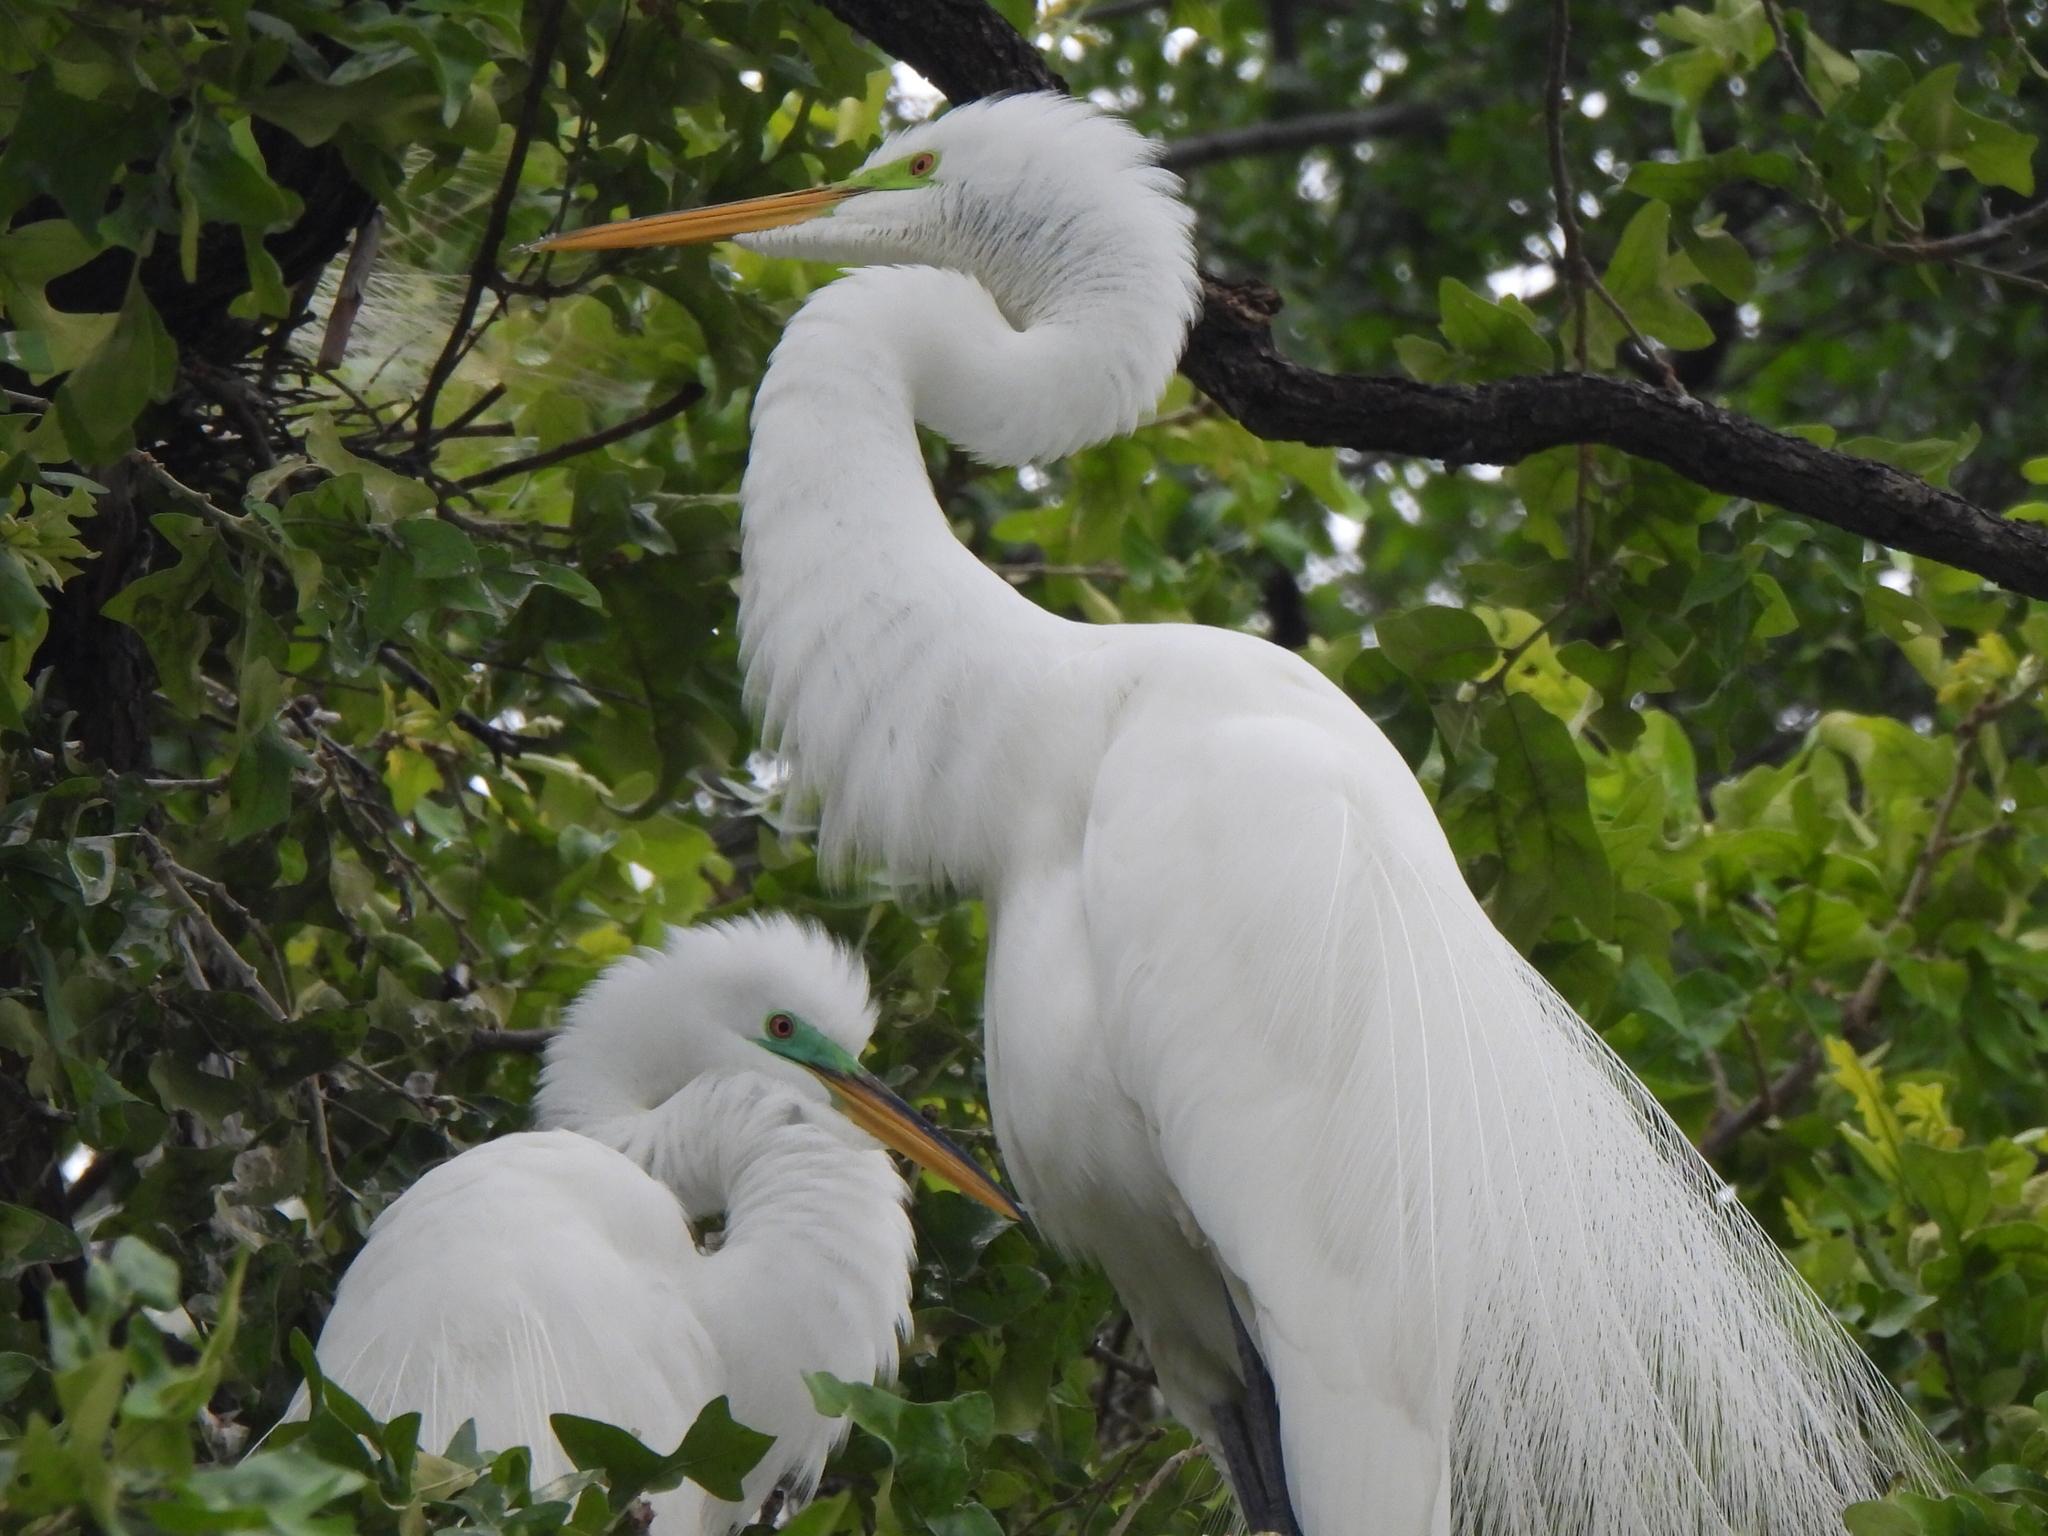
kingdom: Animalia
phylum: Chordata
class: Aves
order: Pelecaniformes
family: Ardeidae
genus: Ardea
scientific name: Ardea alba
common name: Great egret
